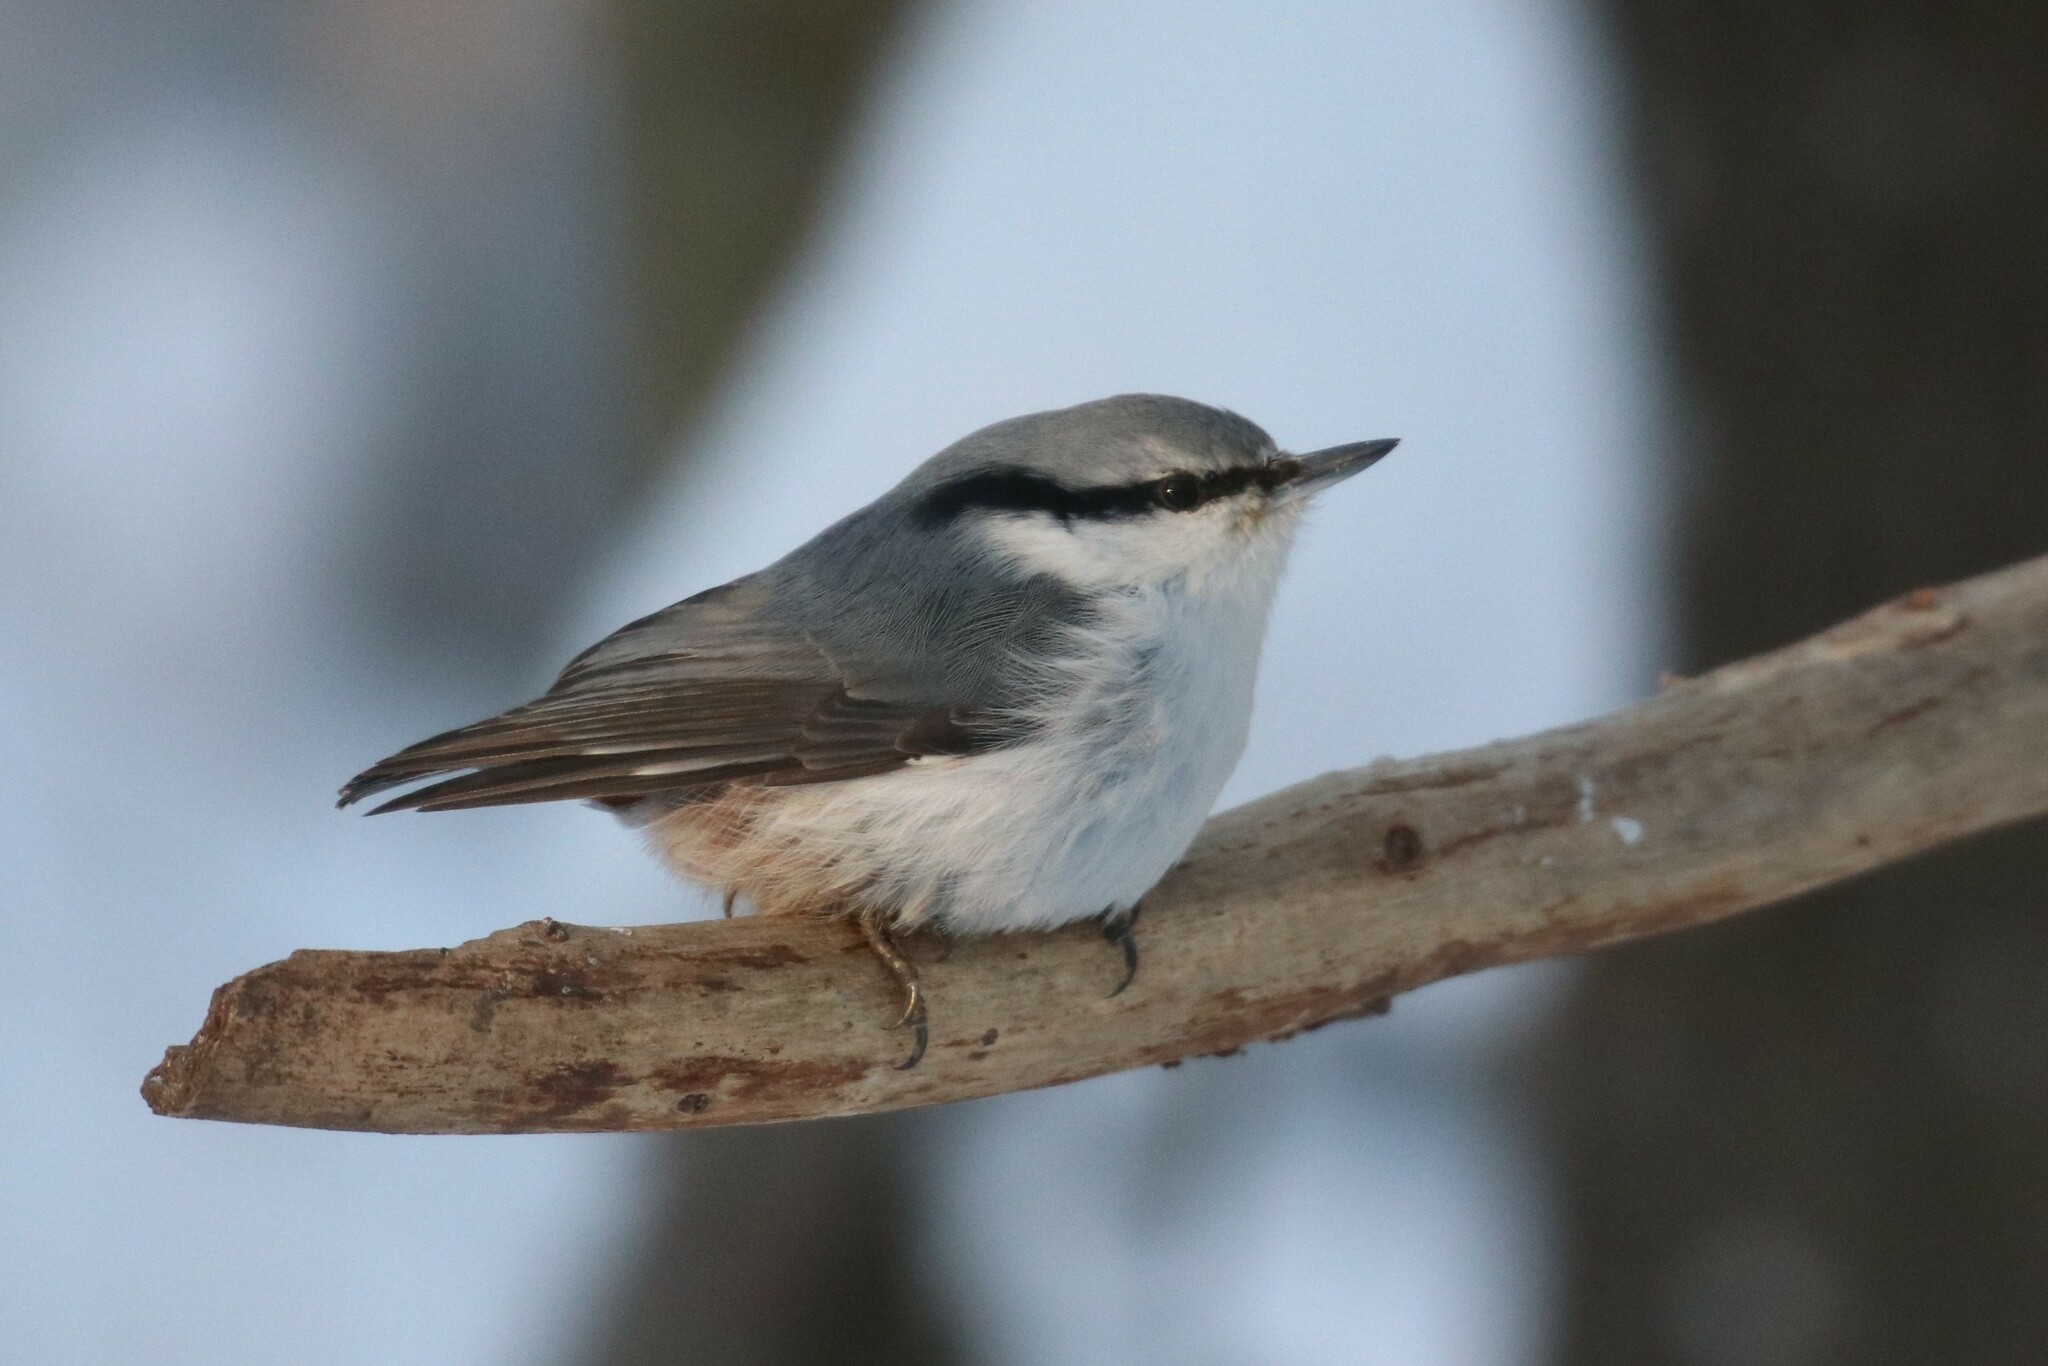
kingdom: Animalia
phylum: Chordata
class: Aves
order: Passeriformes
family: Sittidae
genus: Sitta
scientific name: Sitta europaea
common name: Eurasian nuthatch
